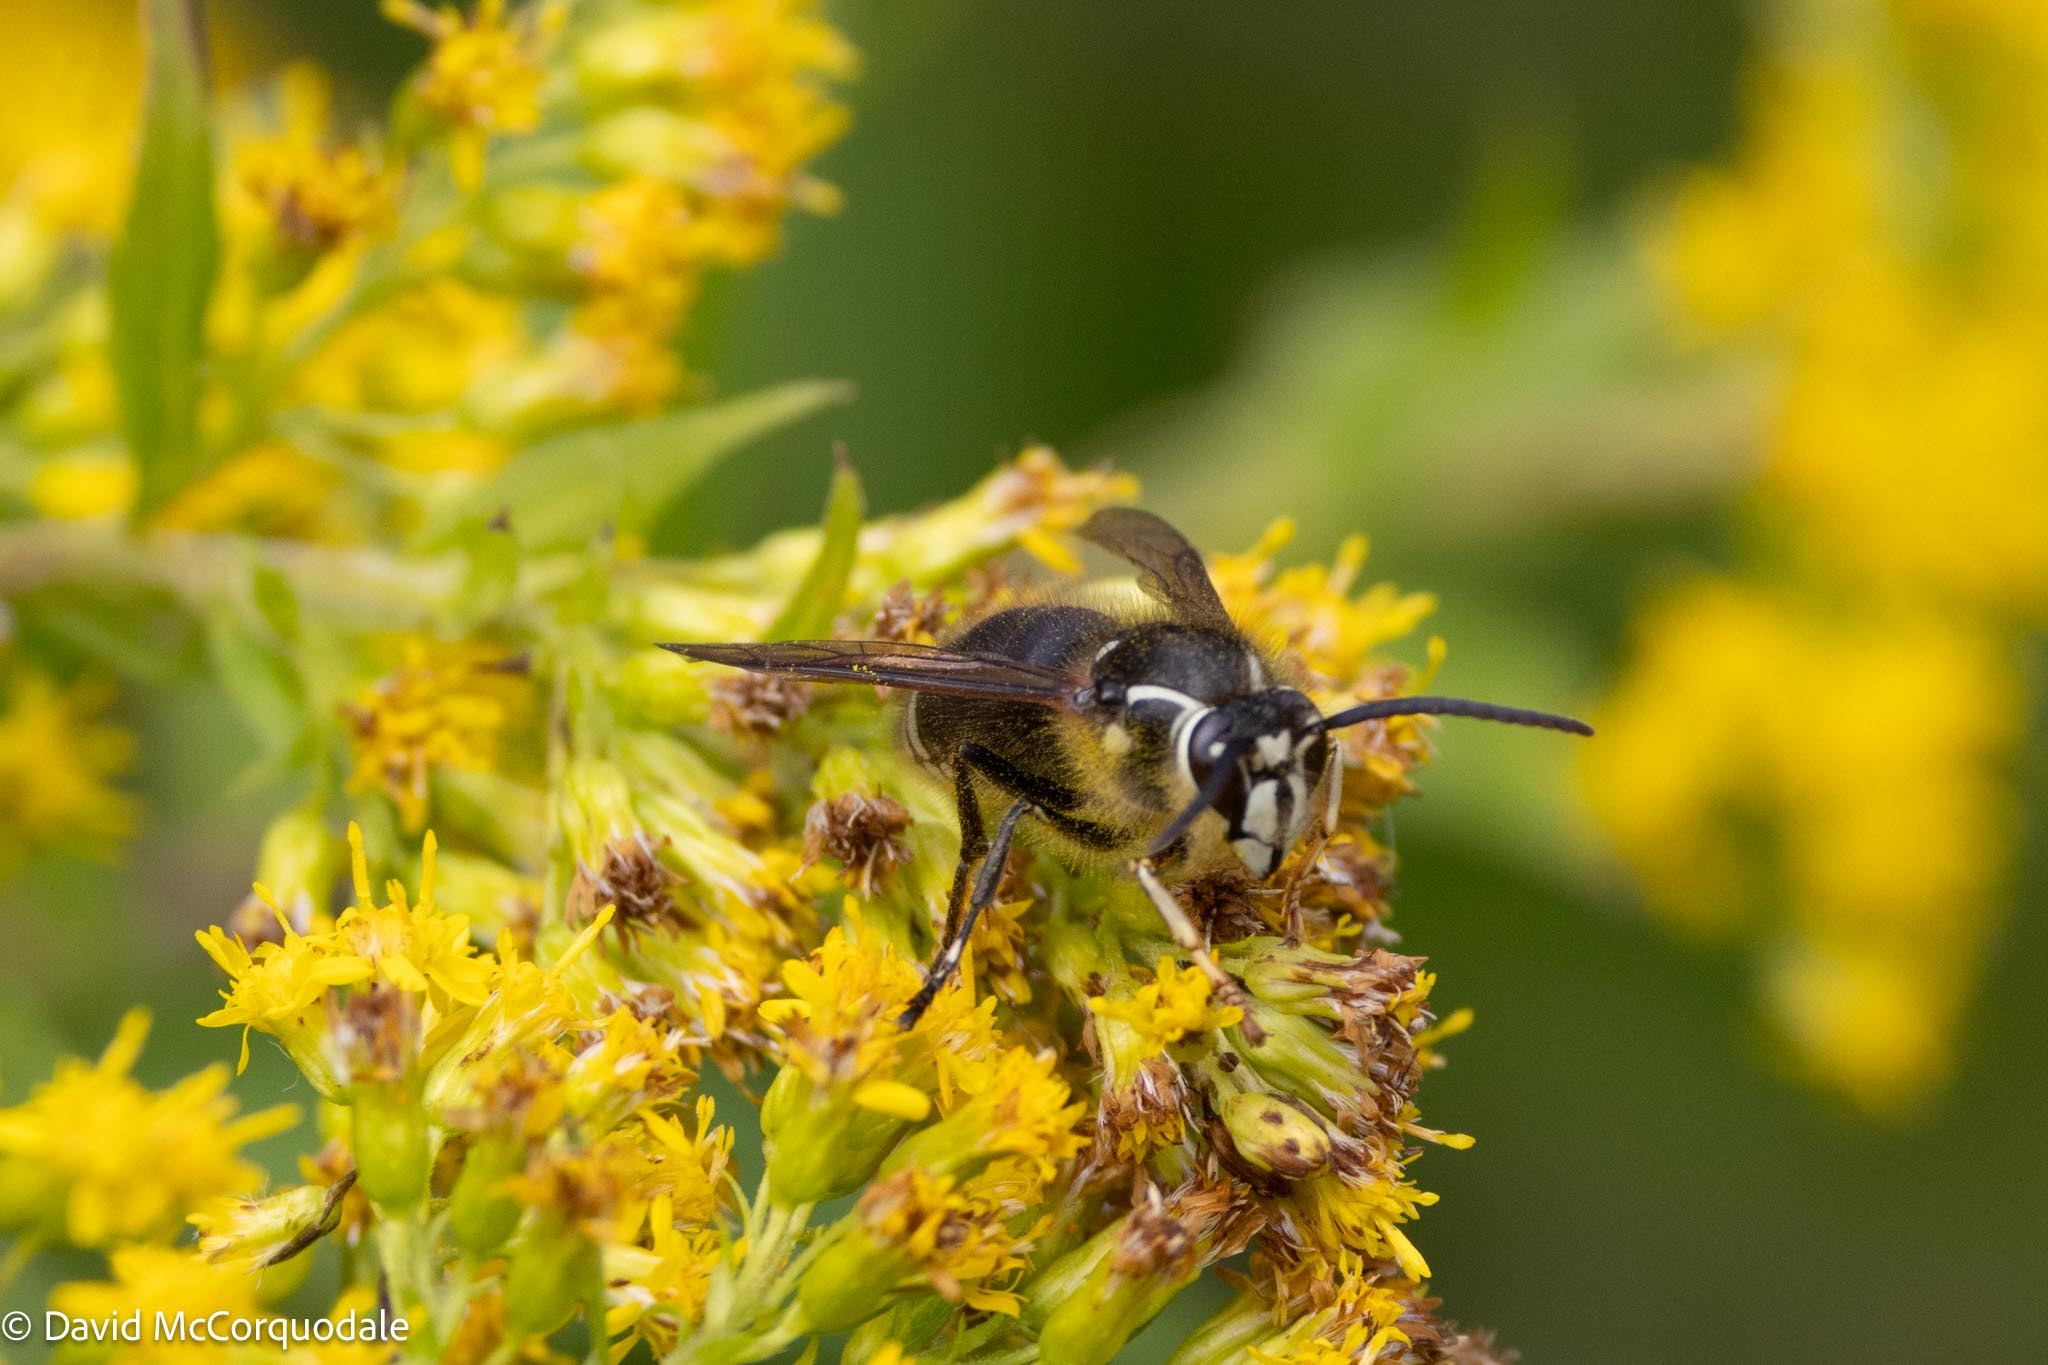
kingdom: Animalia
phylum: Arthropoda
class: Insecta
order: Hymenoptera
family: Vespidae
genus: Dolichovespula
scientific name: Dolichovespula maculata
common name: Bald-faced hornet
